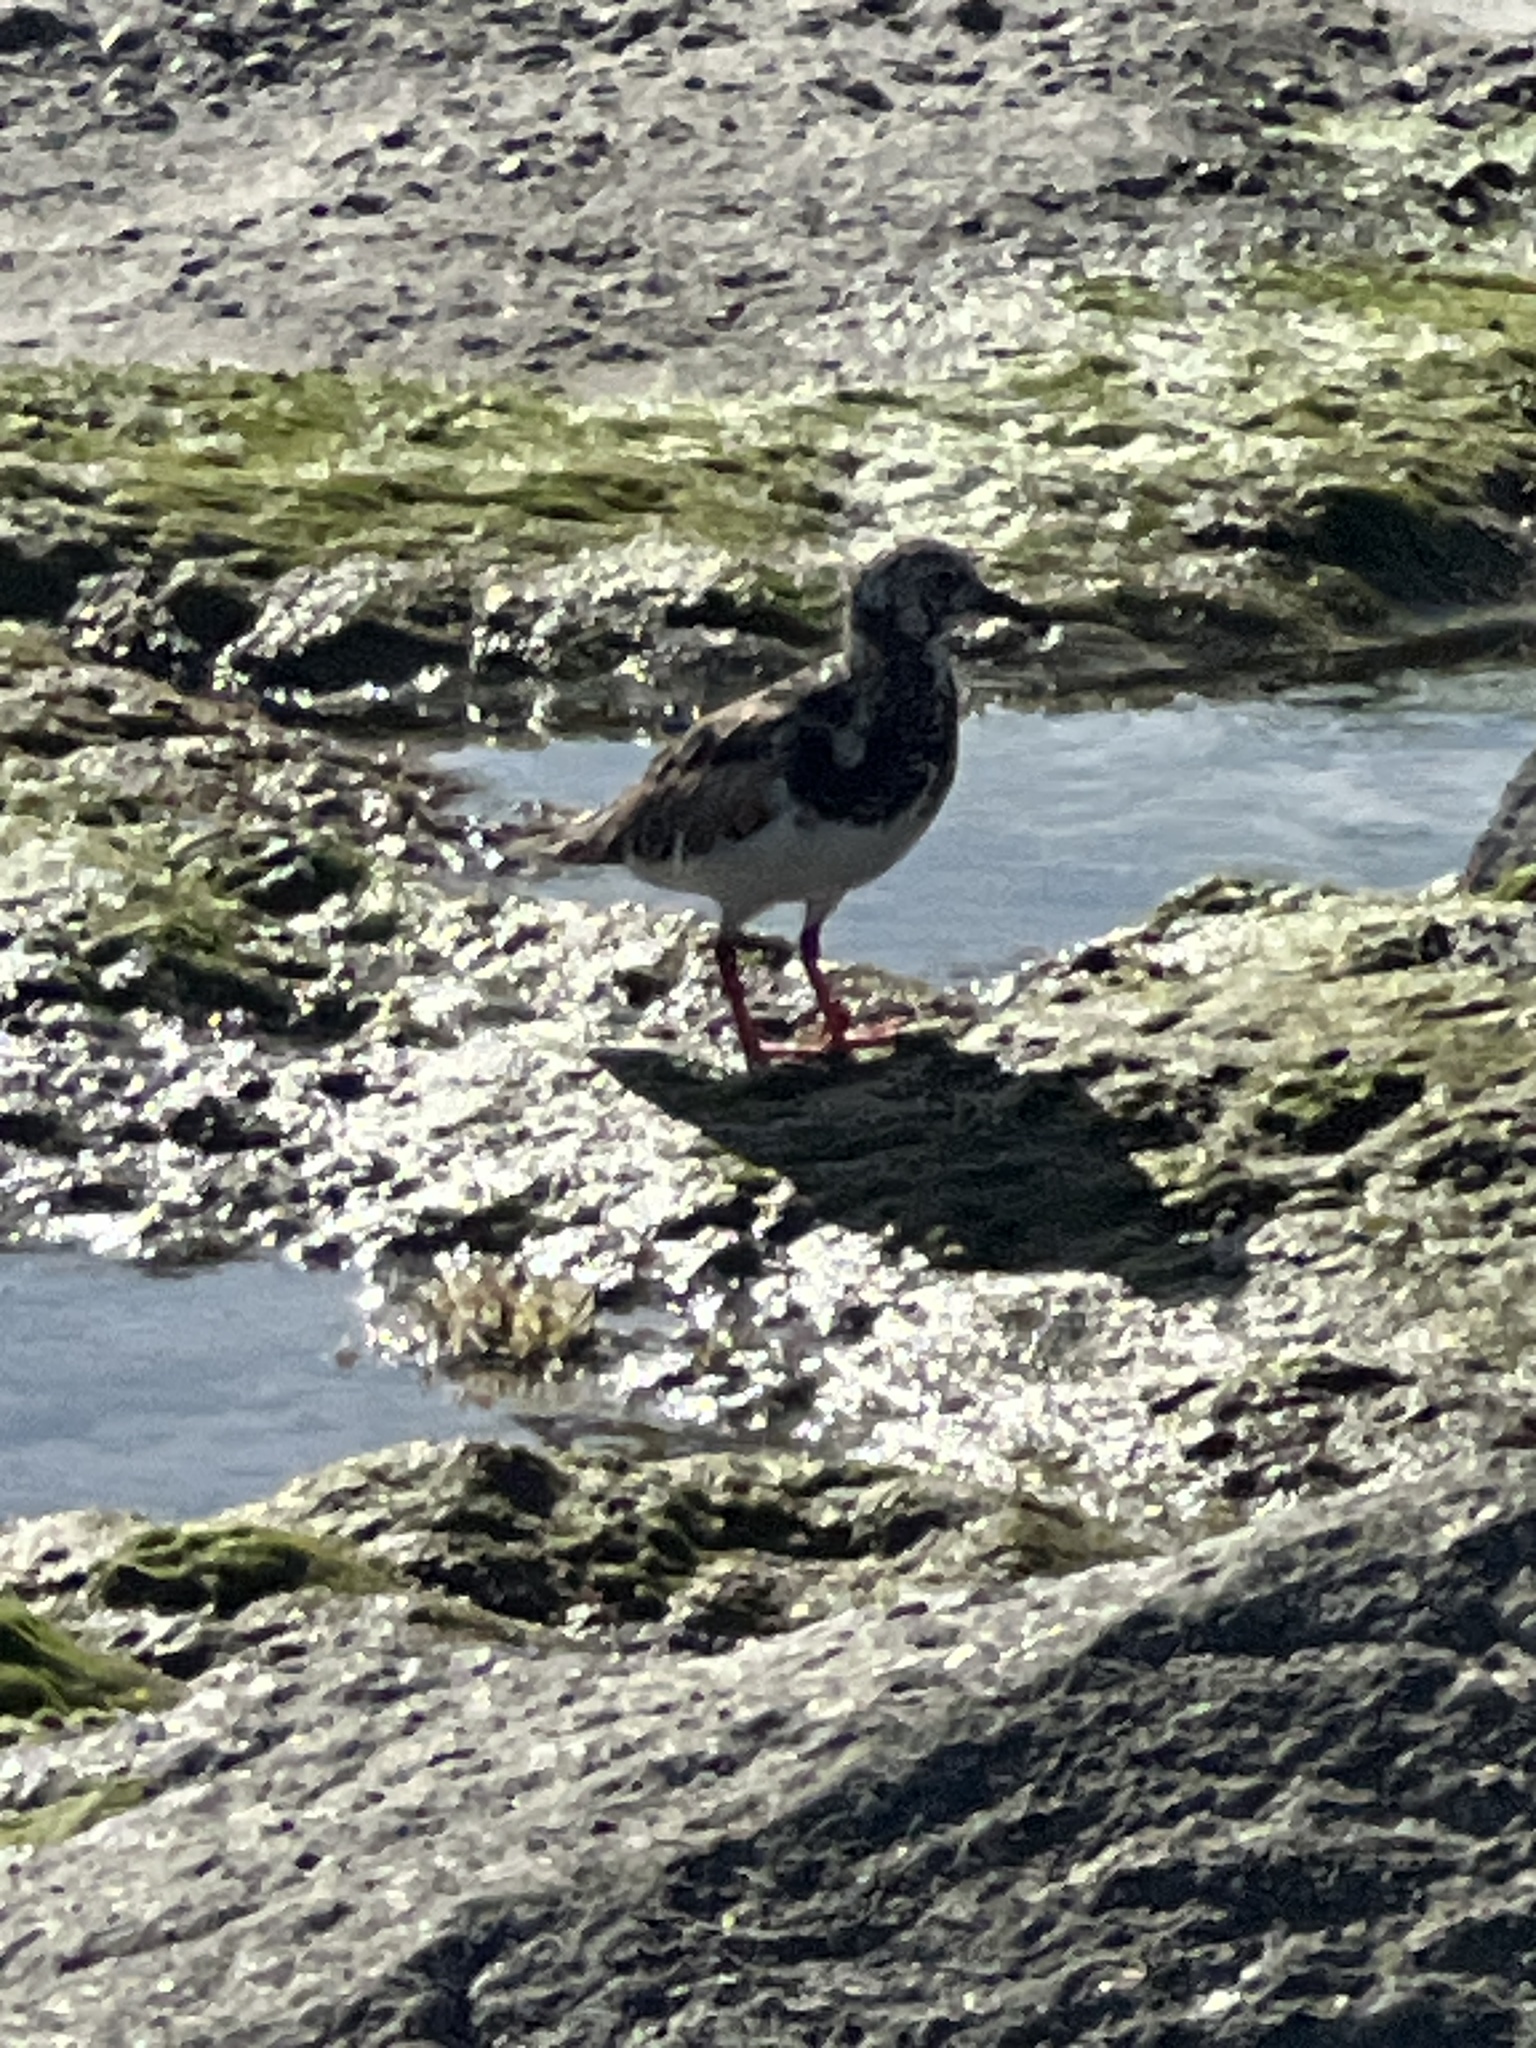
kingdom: Animalia
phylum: Chordata
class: Aves
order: Charadriiformes
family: Scolopacidae
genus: Arenaria
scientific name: Arenaria interpres
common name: Ruddy turnstone
